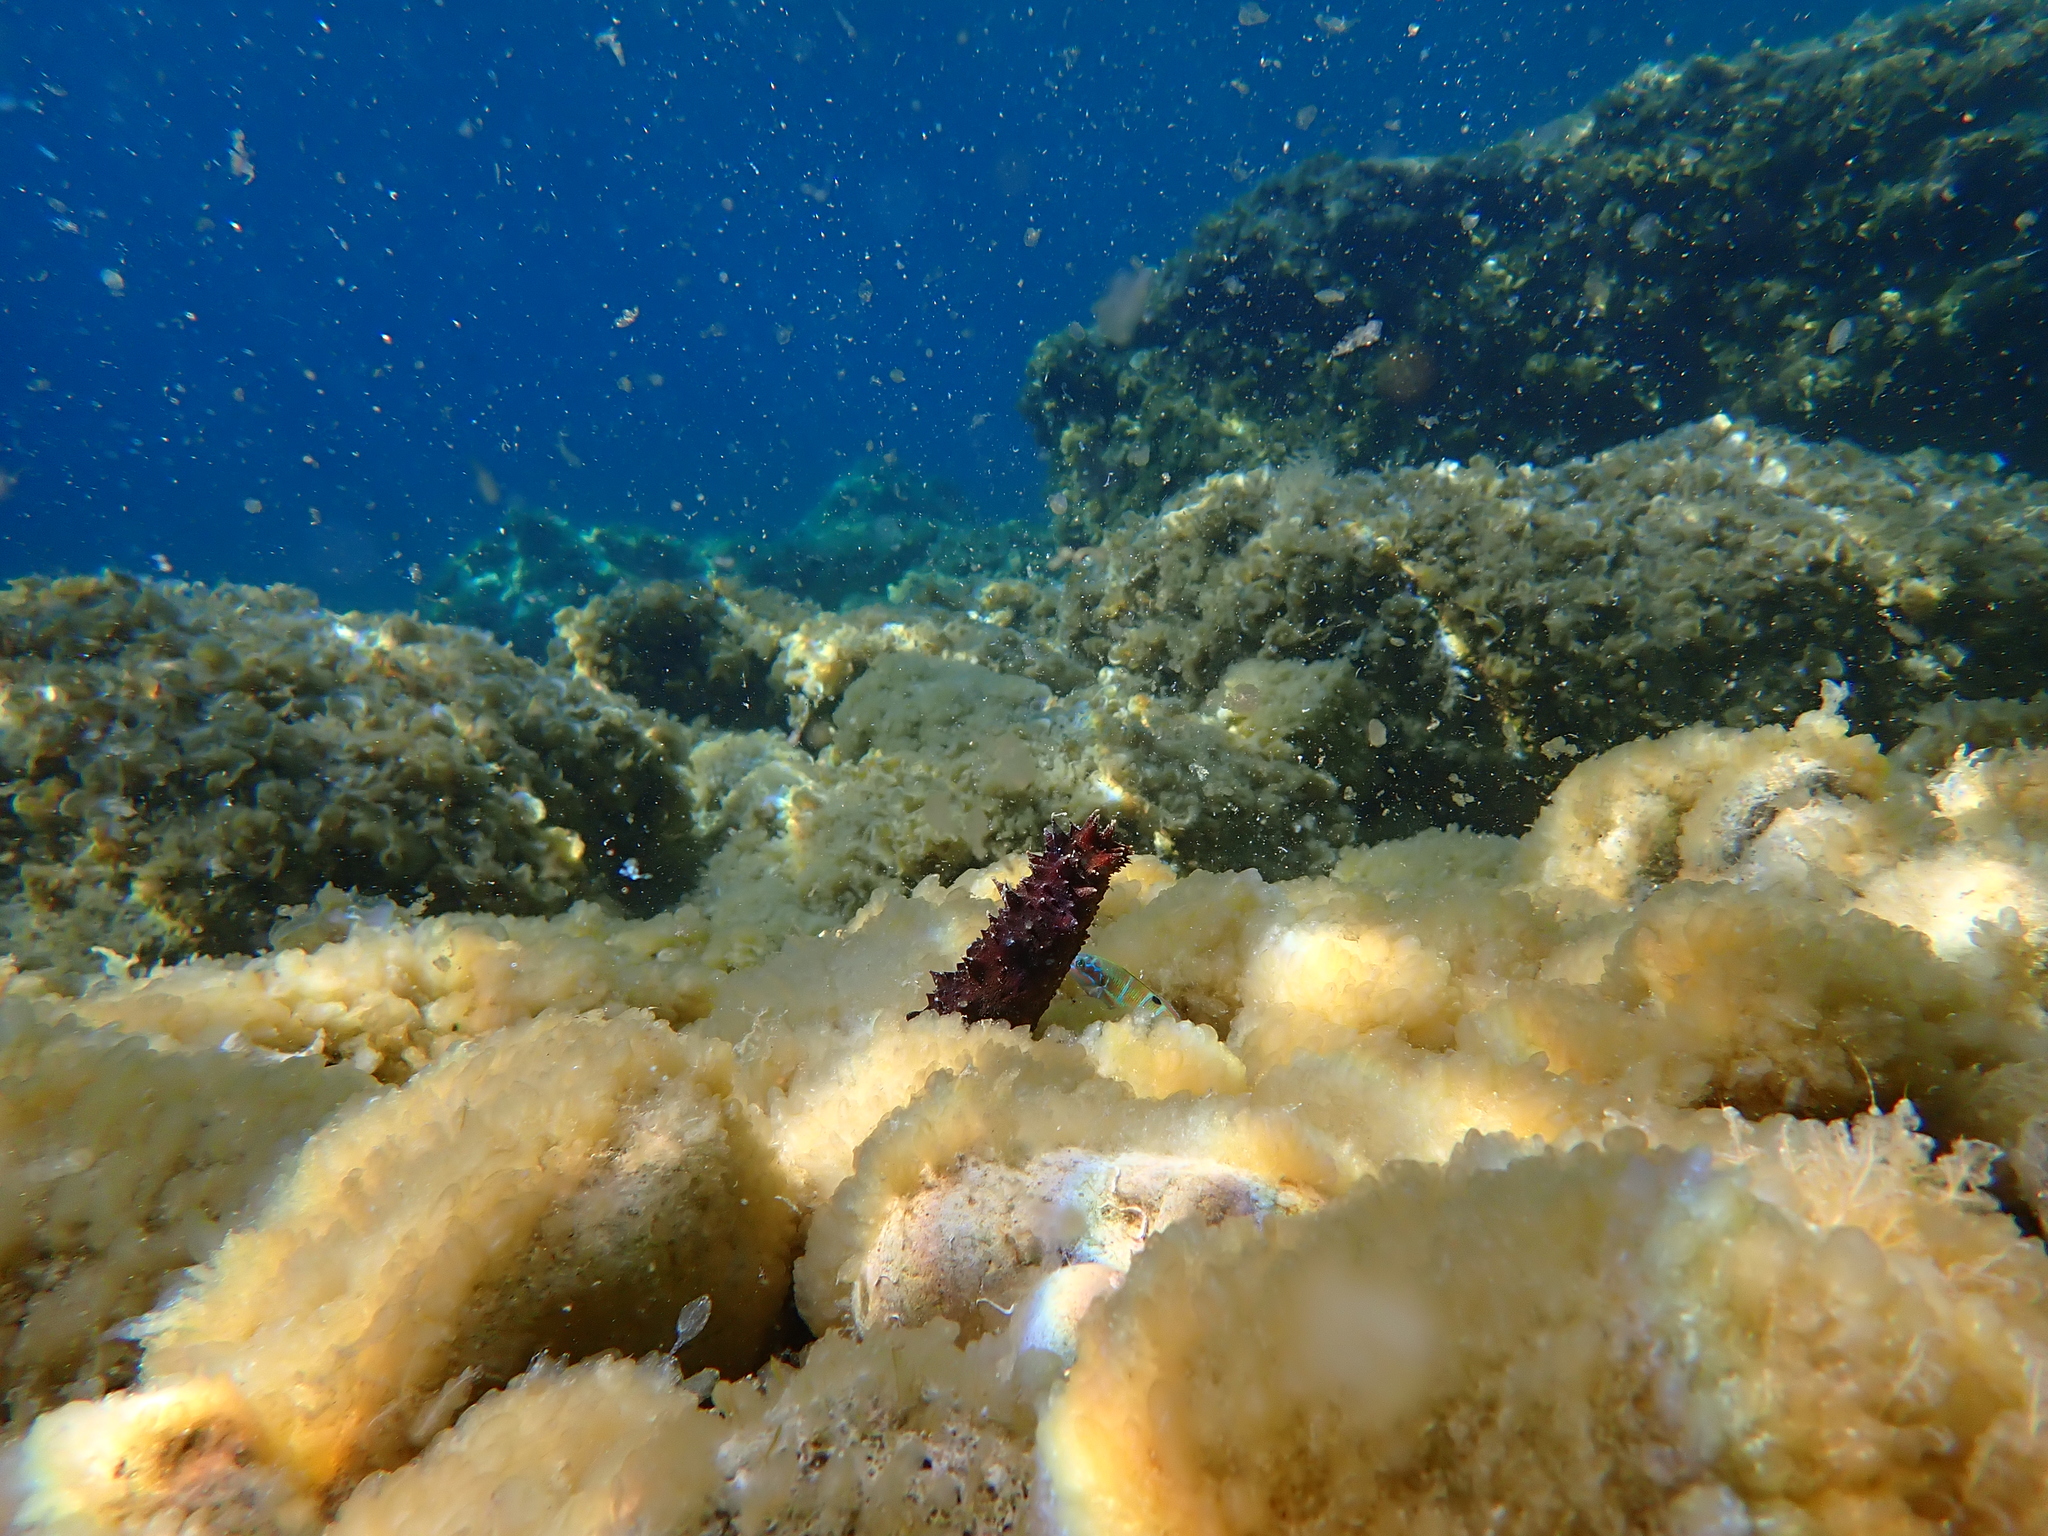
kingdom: Animalia
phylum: Echinodermata
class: Holothuroidea
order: Holothuriida
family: Holothuriidae
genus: Holothuria
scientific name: Holothuria tubulosa
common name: Cotton-spinner
